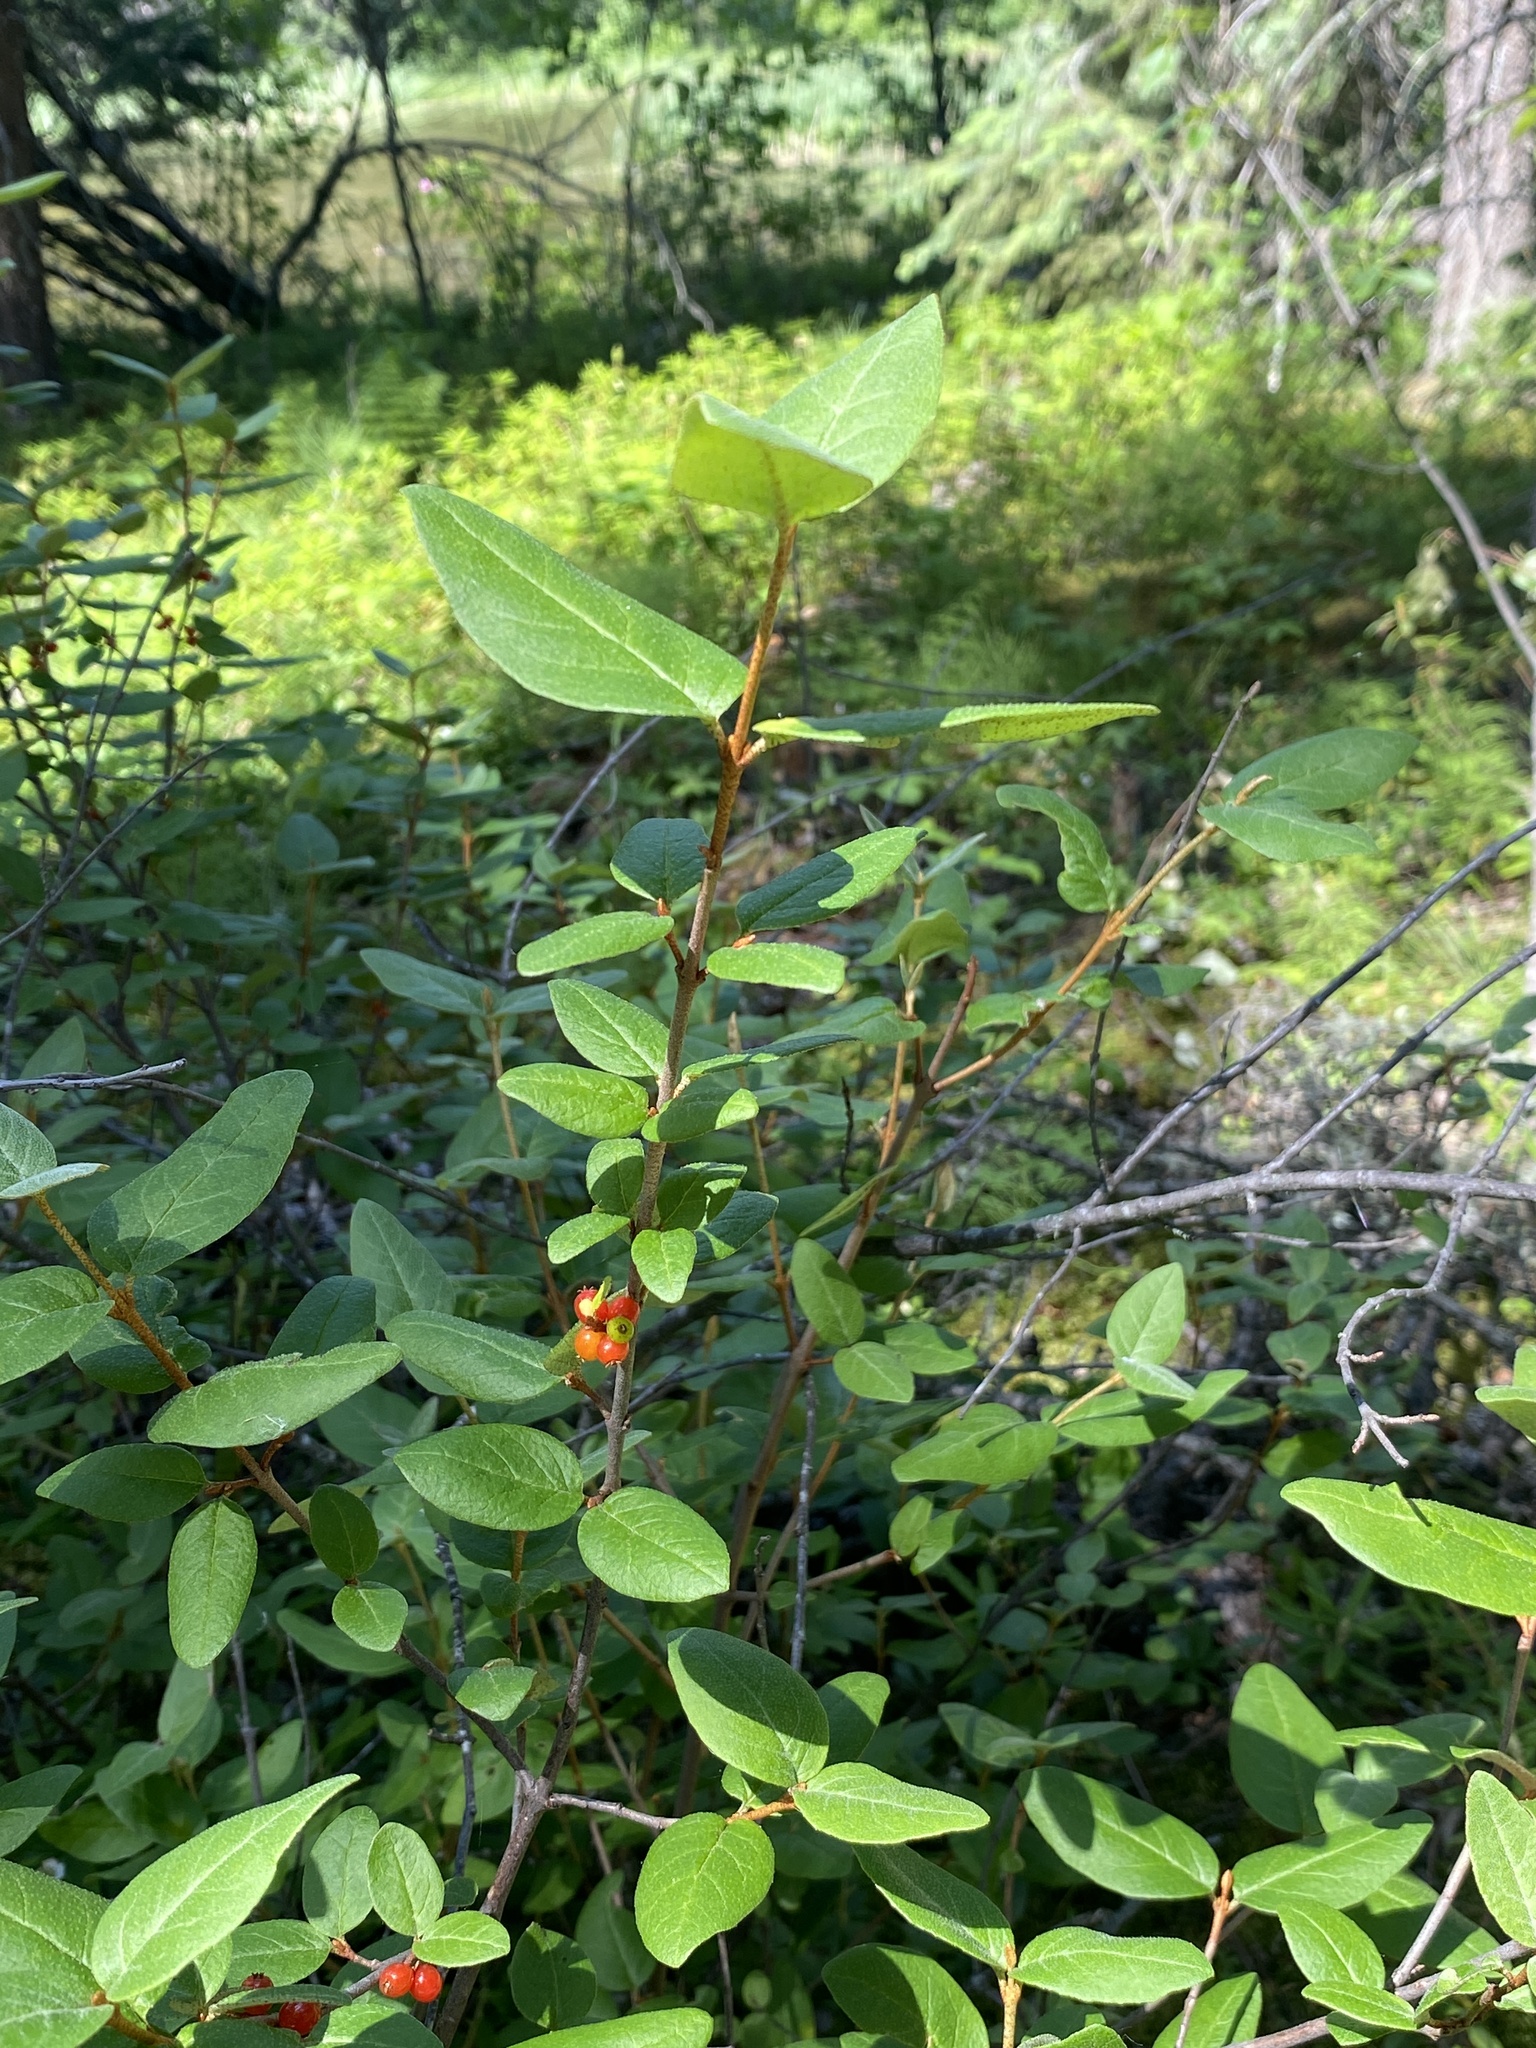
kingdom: Plantae
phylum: Tracheophyta
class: Magnoliopsida
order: Rosales
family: Elaeagnaceae
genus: Shepherdia
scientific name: Shepherdia canadensis
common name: Soapberry
